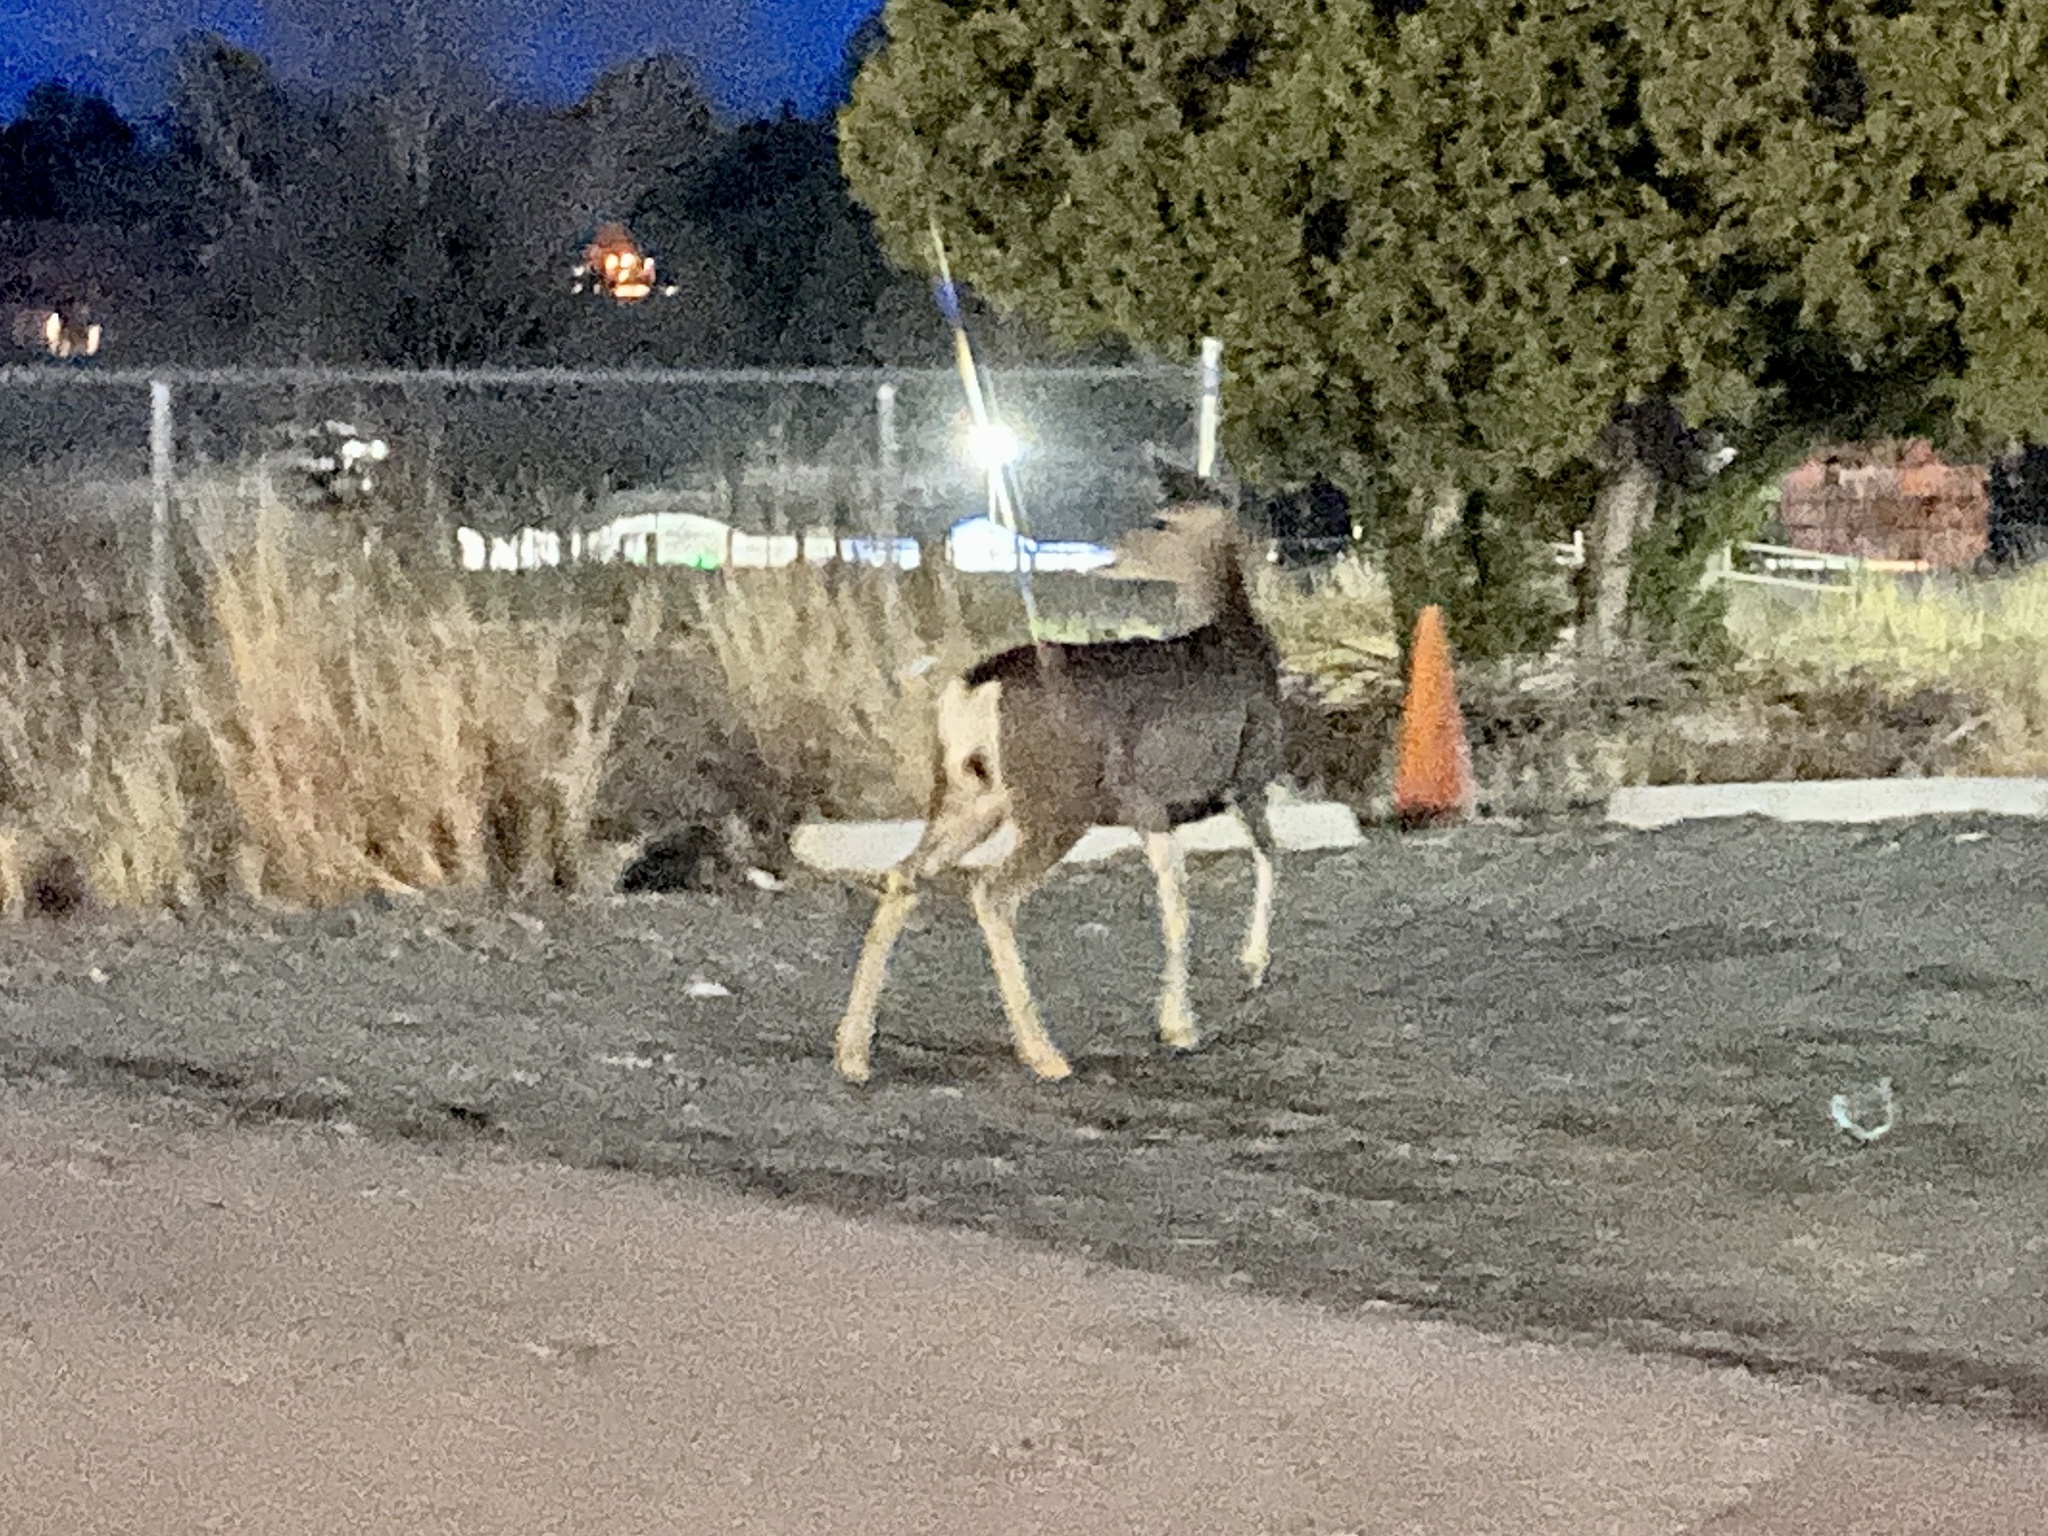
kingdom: Animalia
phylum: Chordata
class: Mammalia
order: Artiodactyla
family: Cervidae
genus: Odocoileus
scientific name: Odocoileus hemionus
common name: Mule deer
